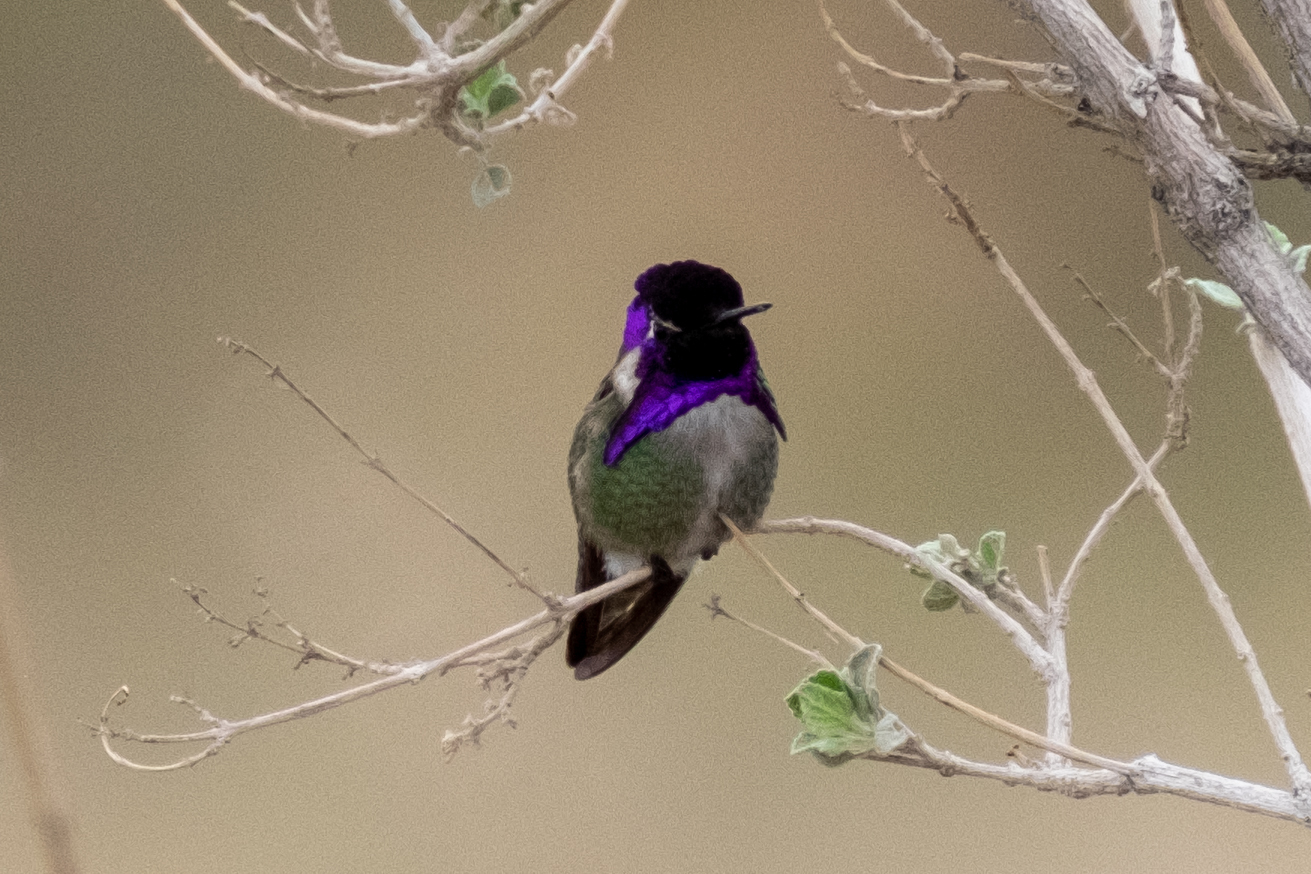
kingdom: Animalia
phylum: Chordata
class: Aves
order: Apodiformes
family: Trochilidae
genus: Calypte
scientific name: Calypte costae
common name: Costa's hummingbird
